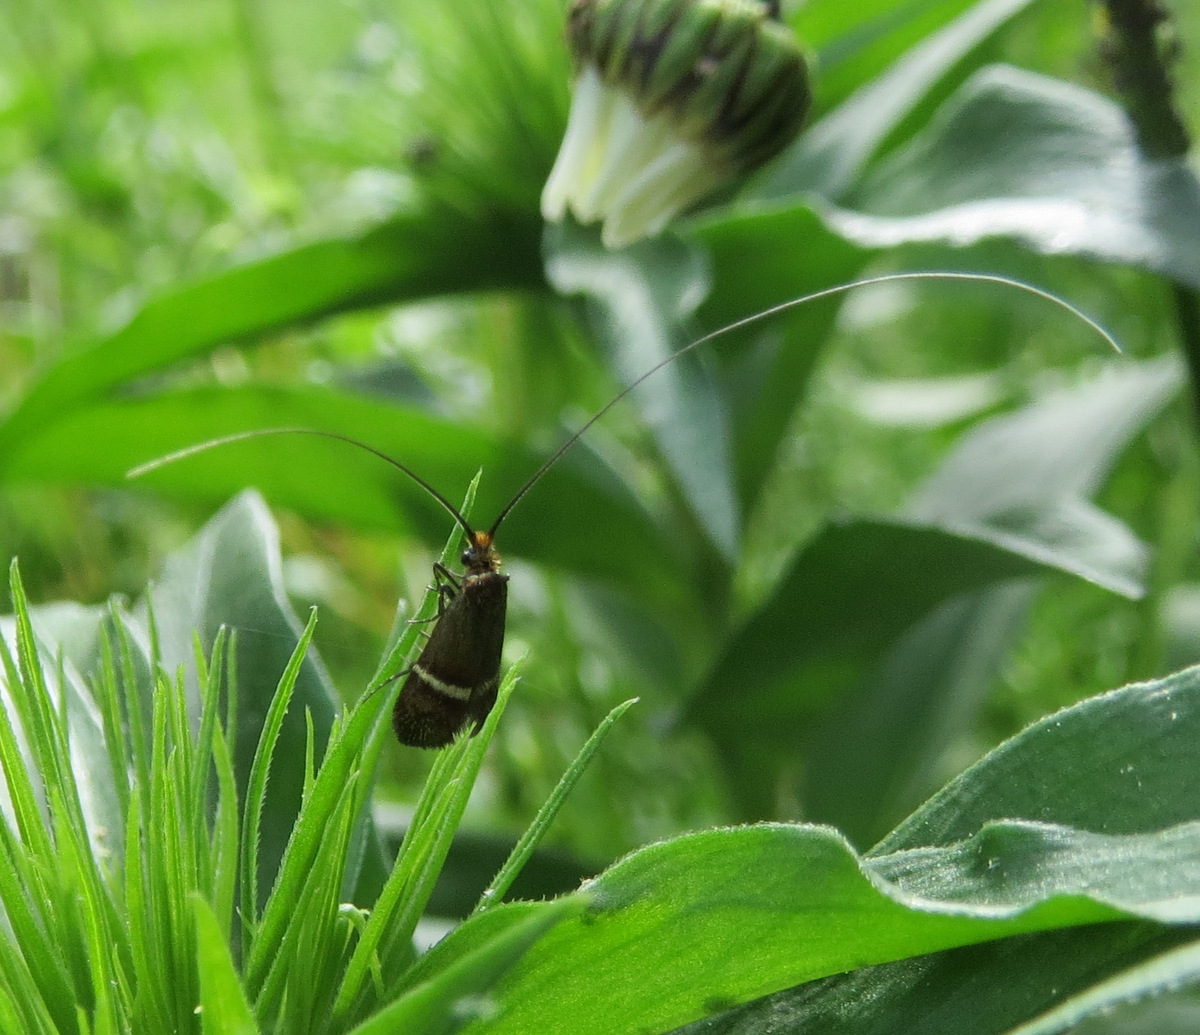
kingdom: Animalia
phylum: Arthropoda
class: Insecta
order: Lepidoptera
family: Adelidae
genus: Adela
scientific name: Adela australis
